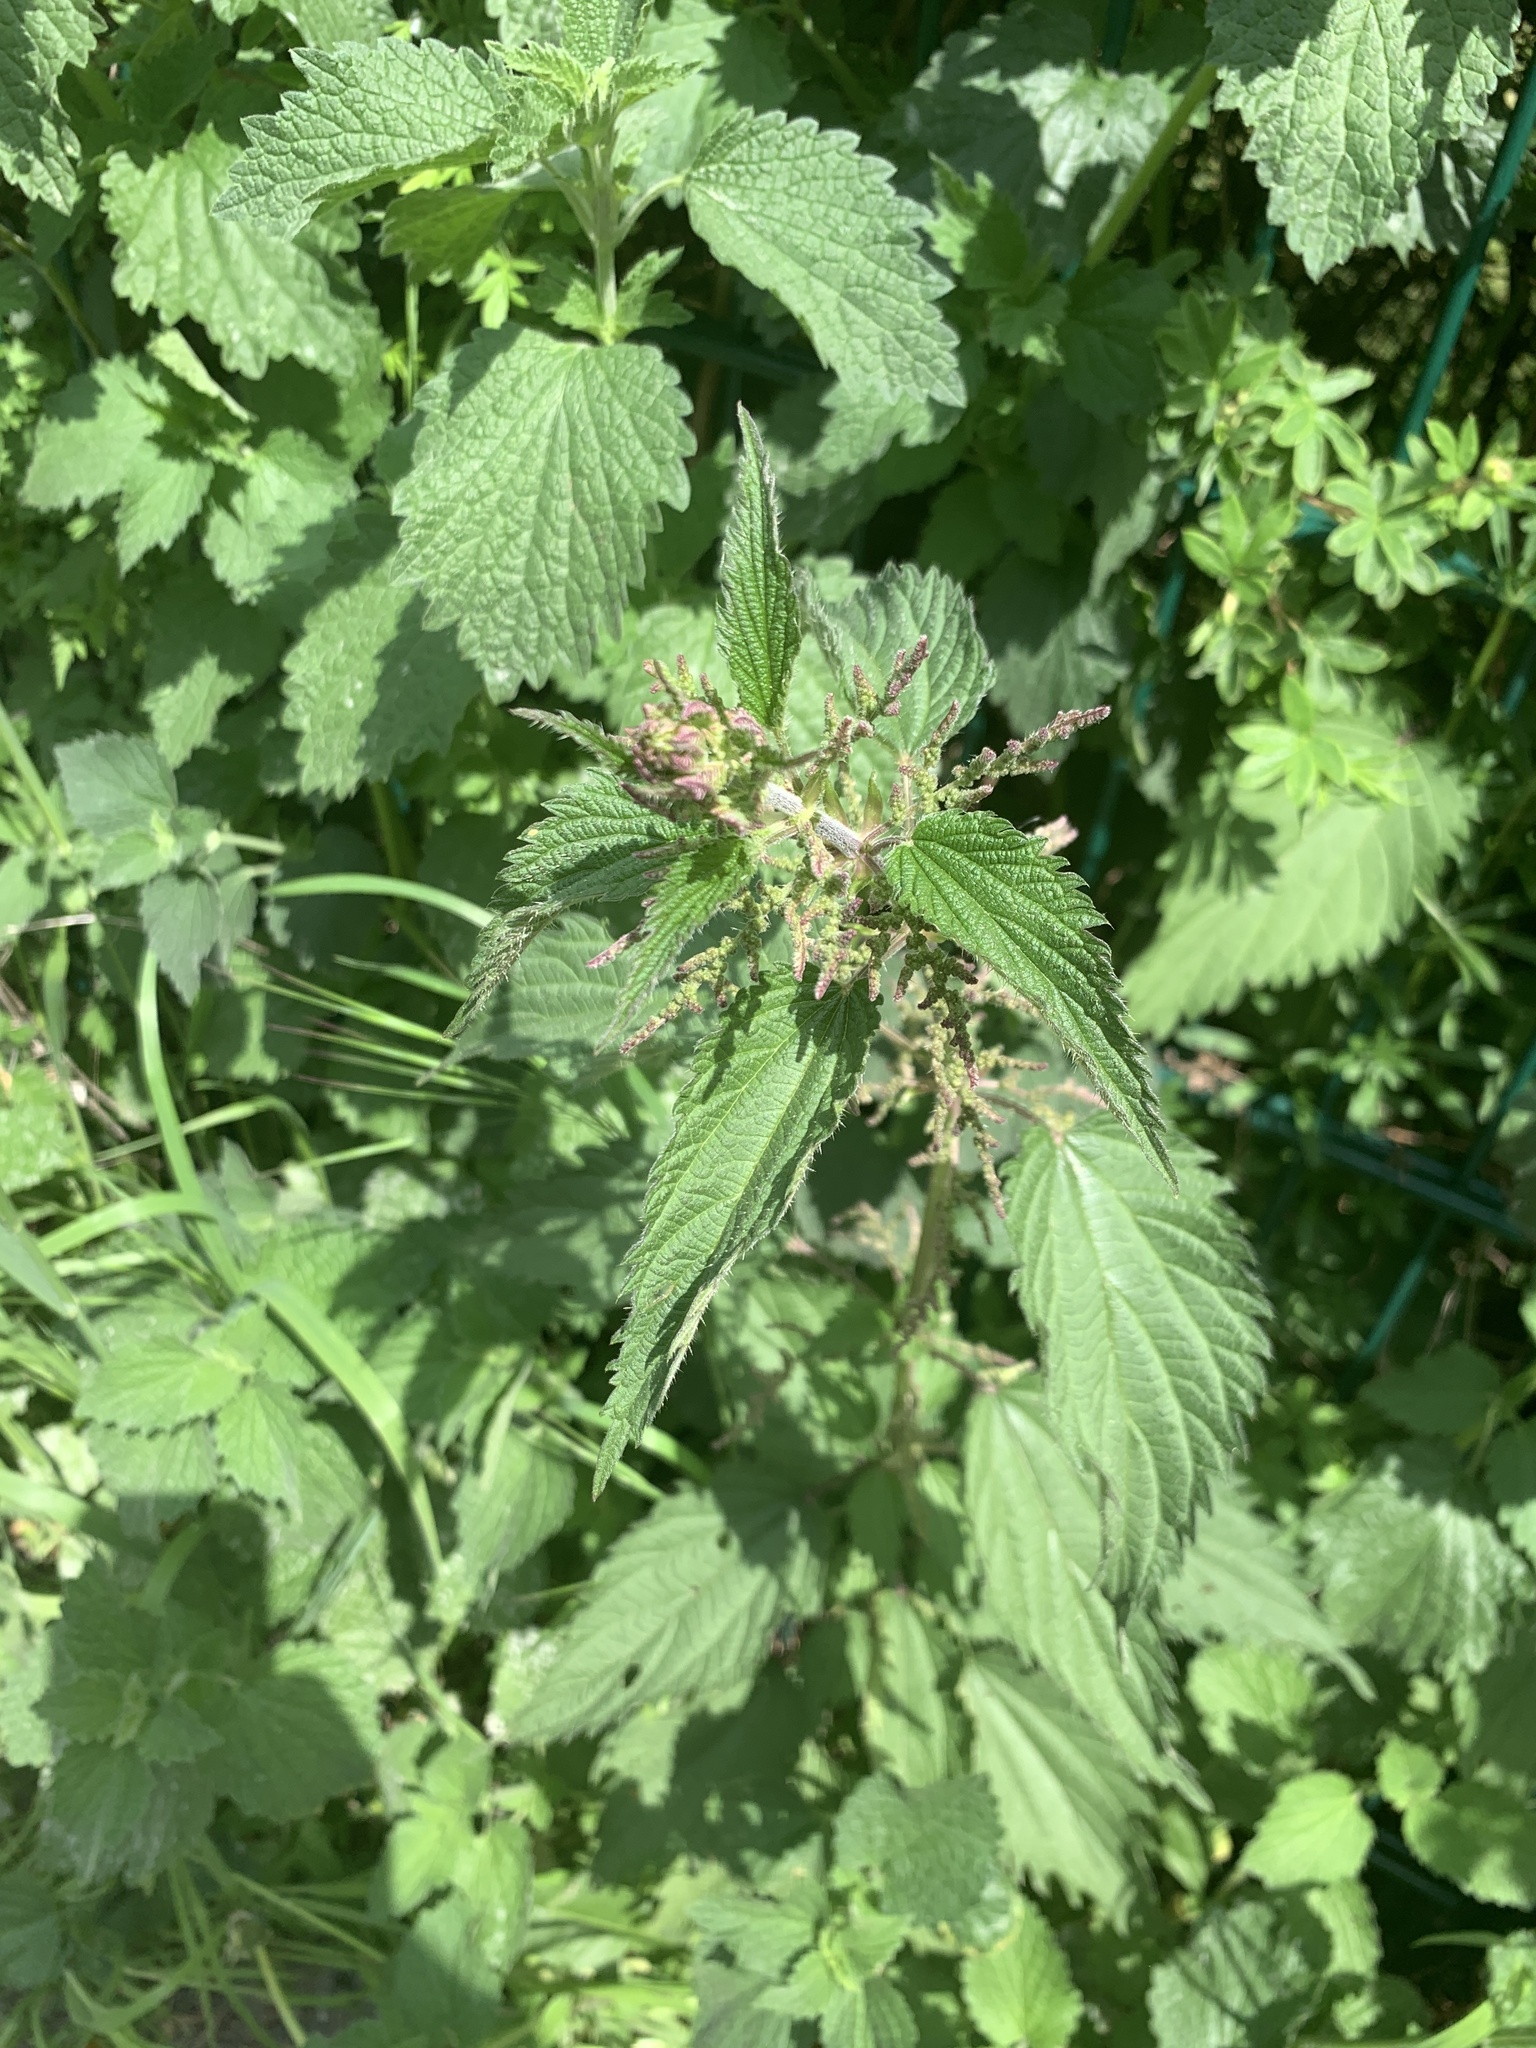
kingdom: Plantae
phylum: Tracheophyta
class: Magnoliopsida
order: Rosales
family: Urticaceae
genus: Urtica
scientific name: Urtica dioica
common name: Common nettle
